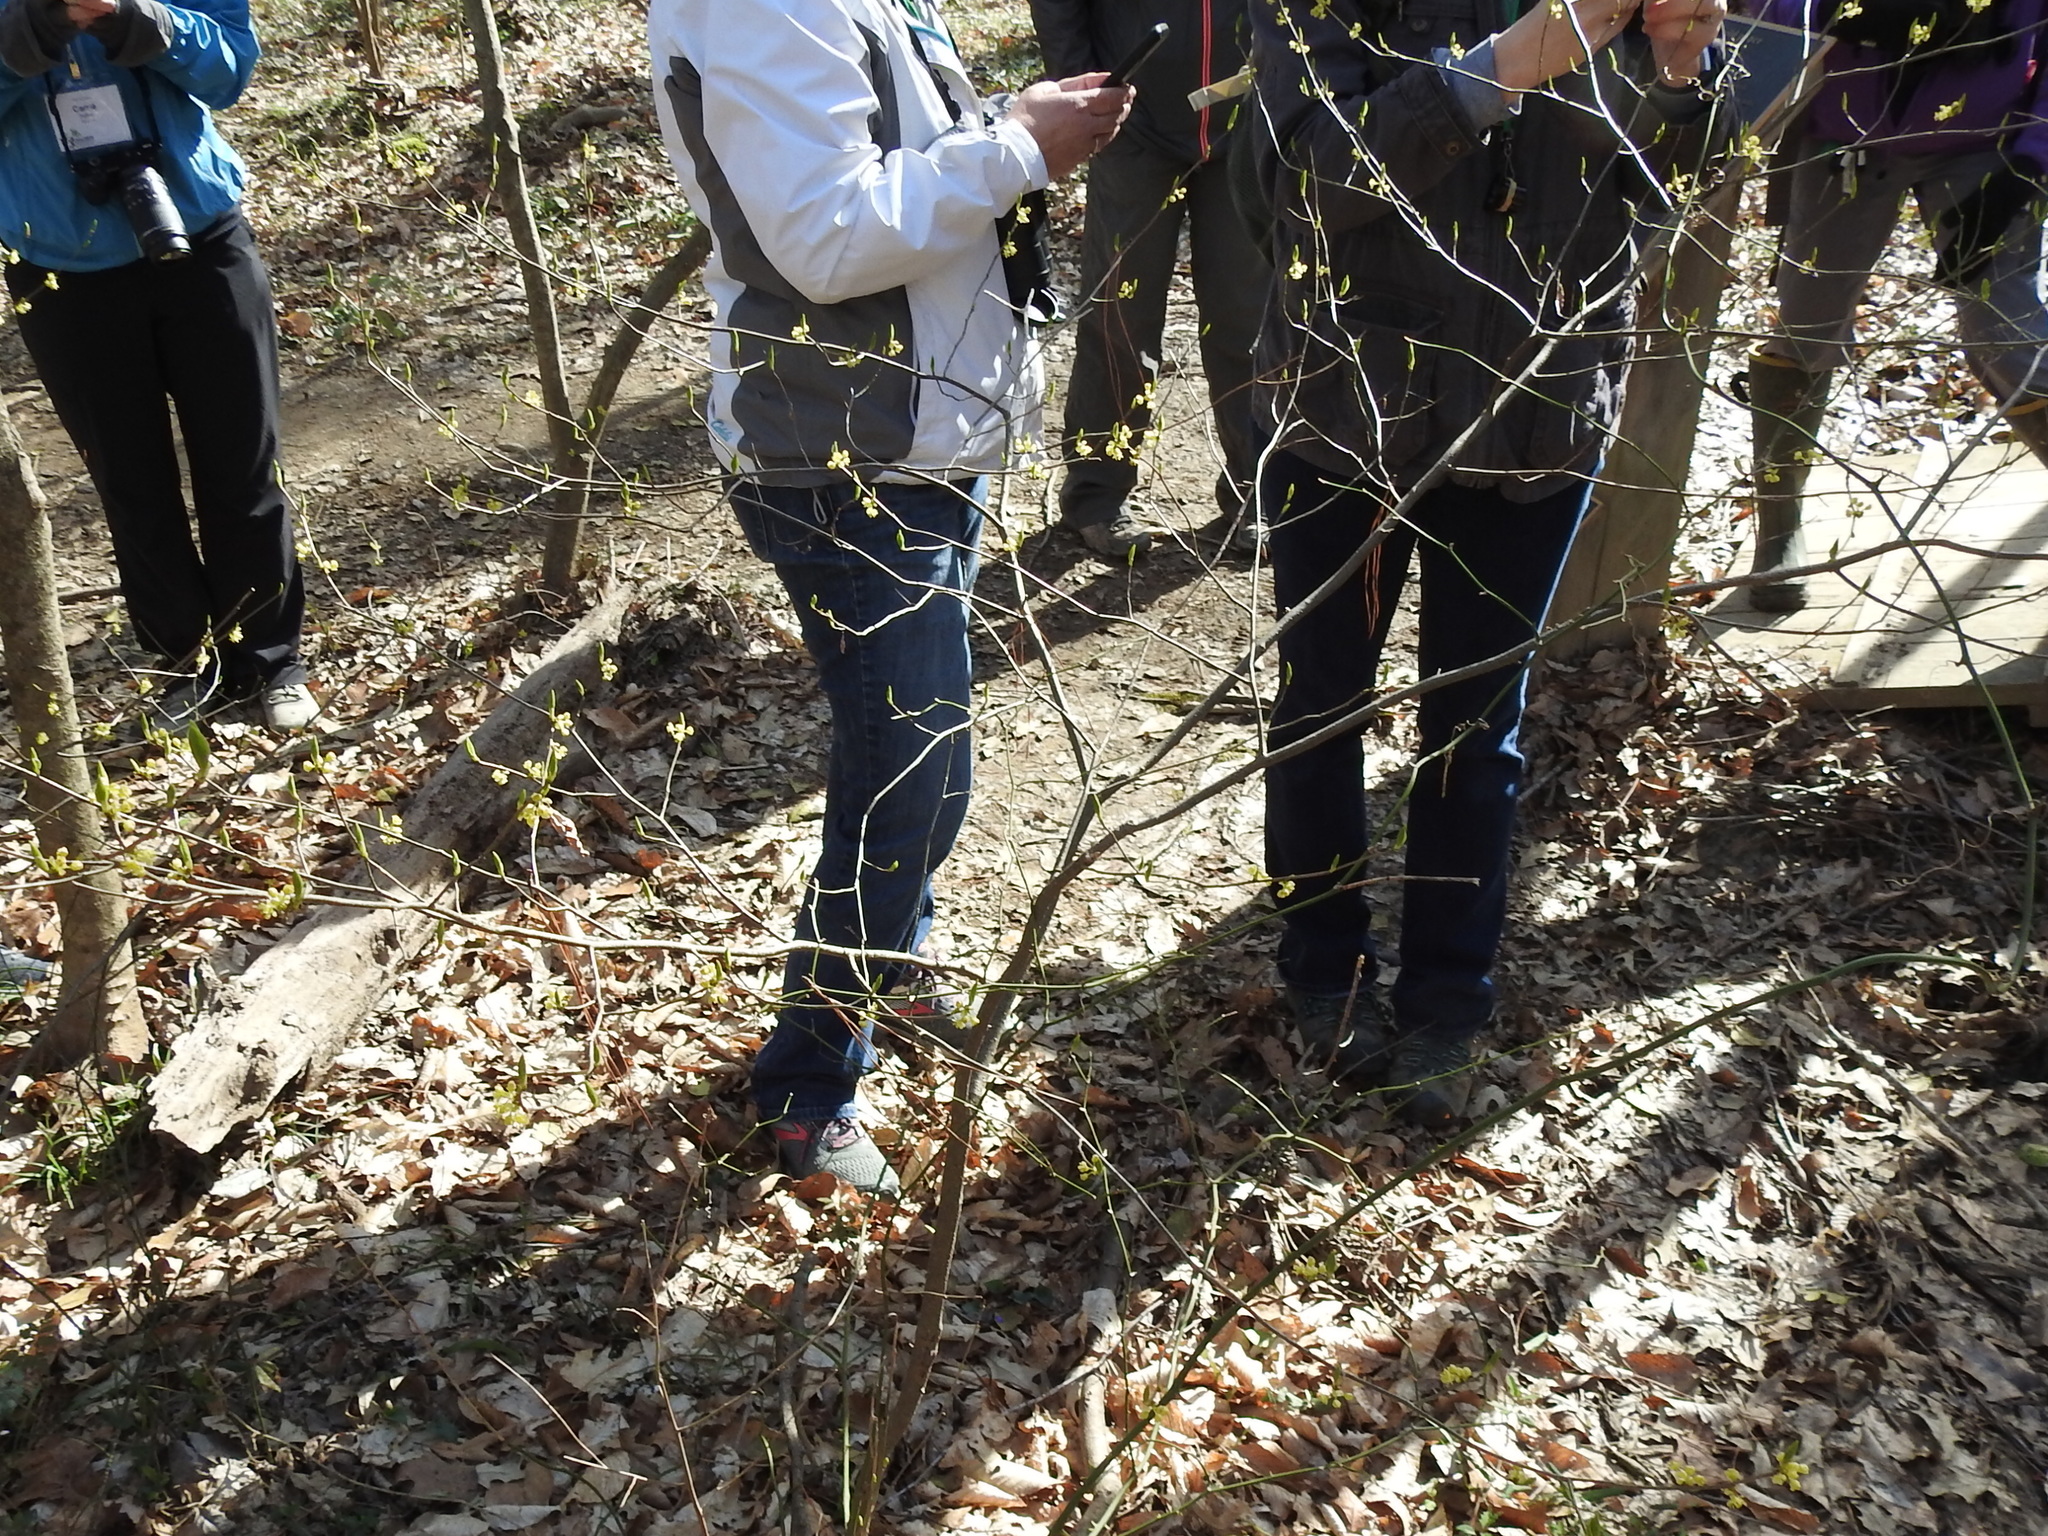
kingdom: Plantae
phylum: Tracheophyta
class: Magnoliopsida
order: Laurales
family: Lauraceae
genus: Lindera
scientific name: Lindera benzoin
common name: Spicebush
